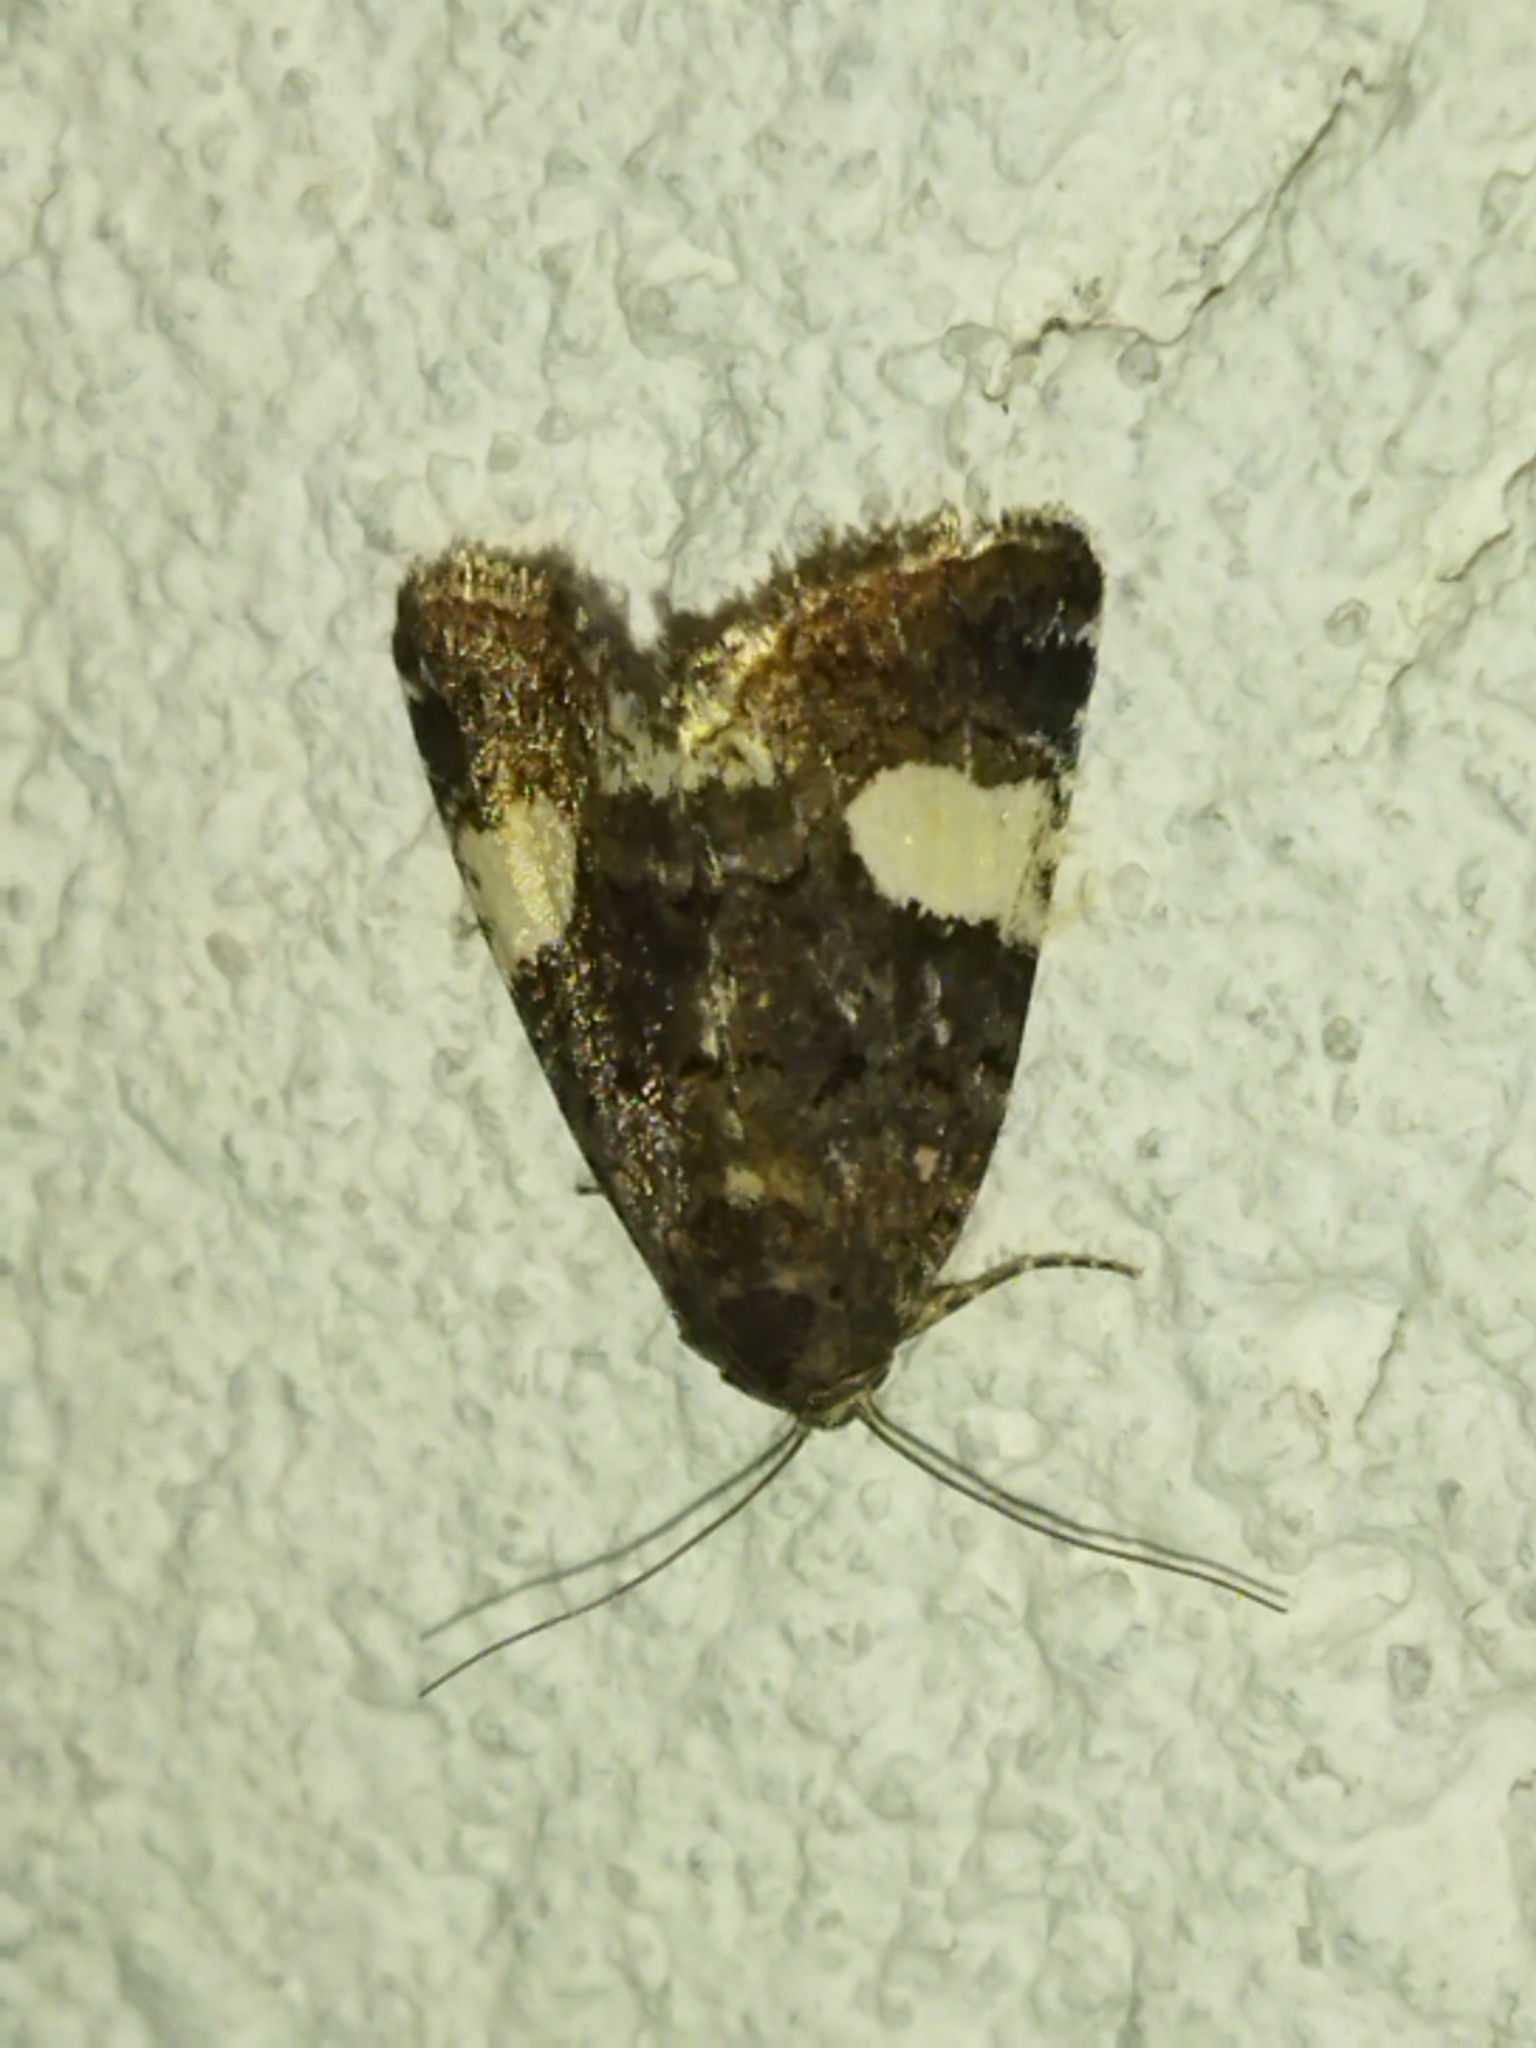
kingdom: Animalia
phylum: Arthropoda
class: Insecta
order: Lepidoptera
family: Erebidae
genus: Tyta
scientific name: Tyta luctuosa
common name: Four-spotted
